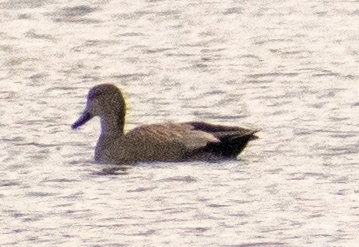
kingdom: Animalia
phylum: Chordata
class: Aves
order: Anseriformes
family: Anatidae
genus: Mareca
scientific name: Mareca strepera
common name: Gadwall
